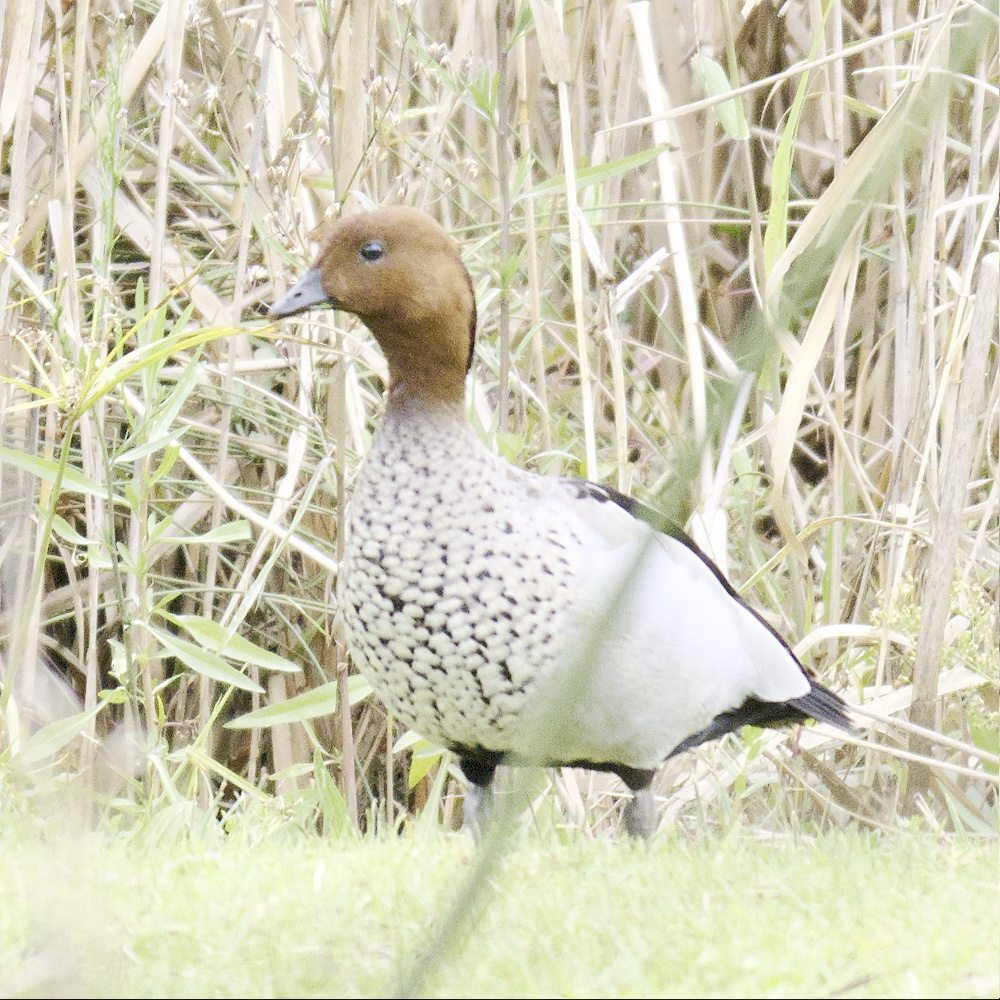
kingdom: Animalia
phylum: Chordata
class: Aves
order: Anseriformes
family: Anatidae
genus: Chenonetta
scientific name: Chenonetta jubata
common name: Maned duck
